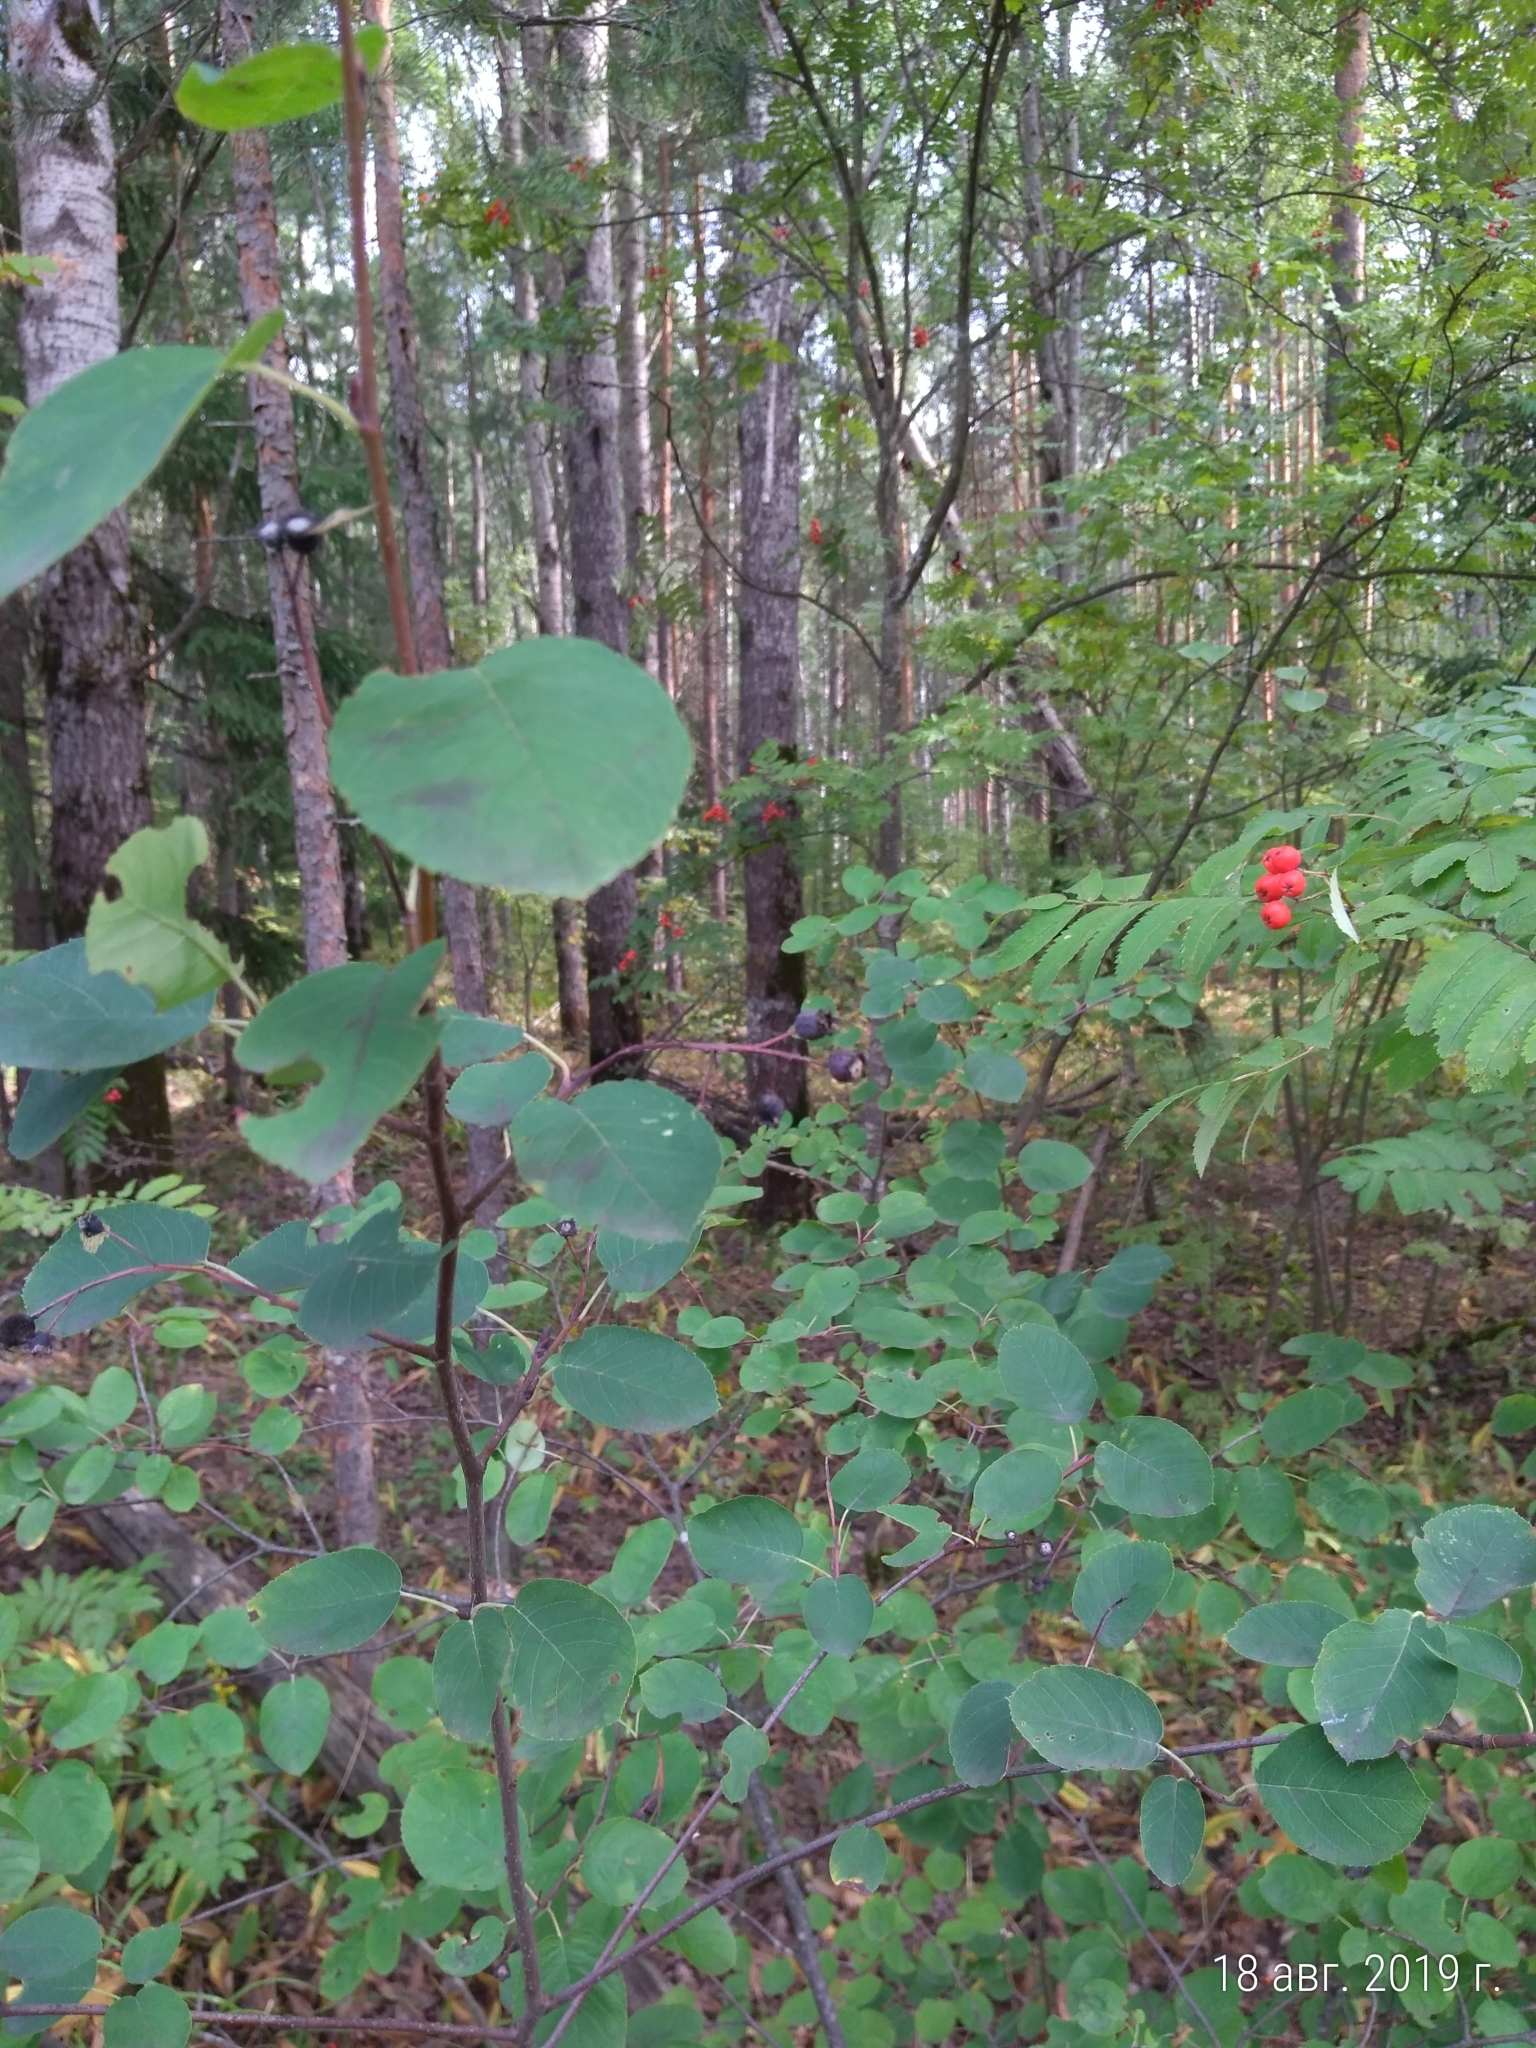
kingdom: Plantae
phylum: Tracheophyta
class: Magnoliopsida
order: Rosales
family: Rosaceae
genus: Amelanchier
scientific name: Amelanchier
